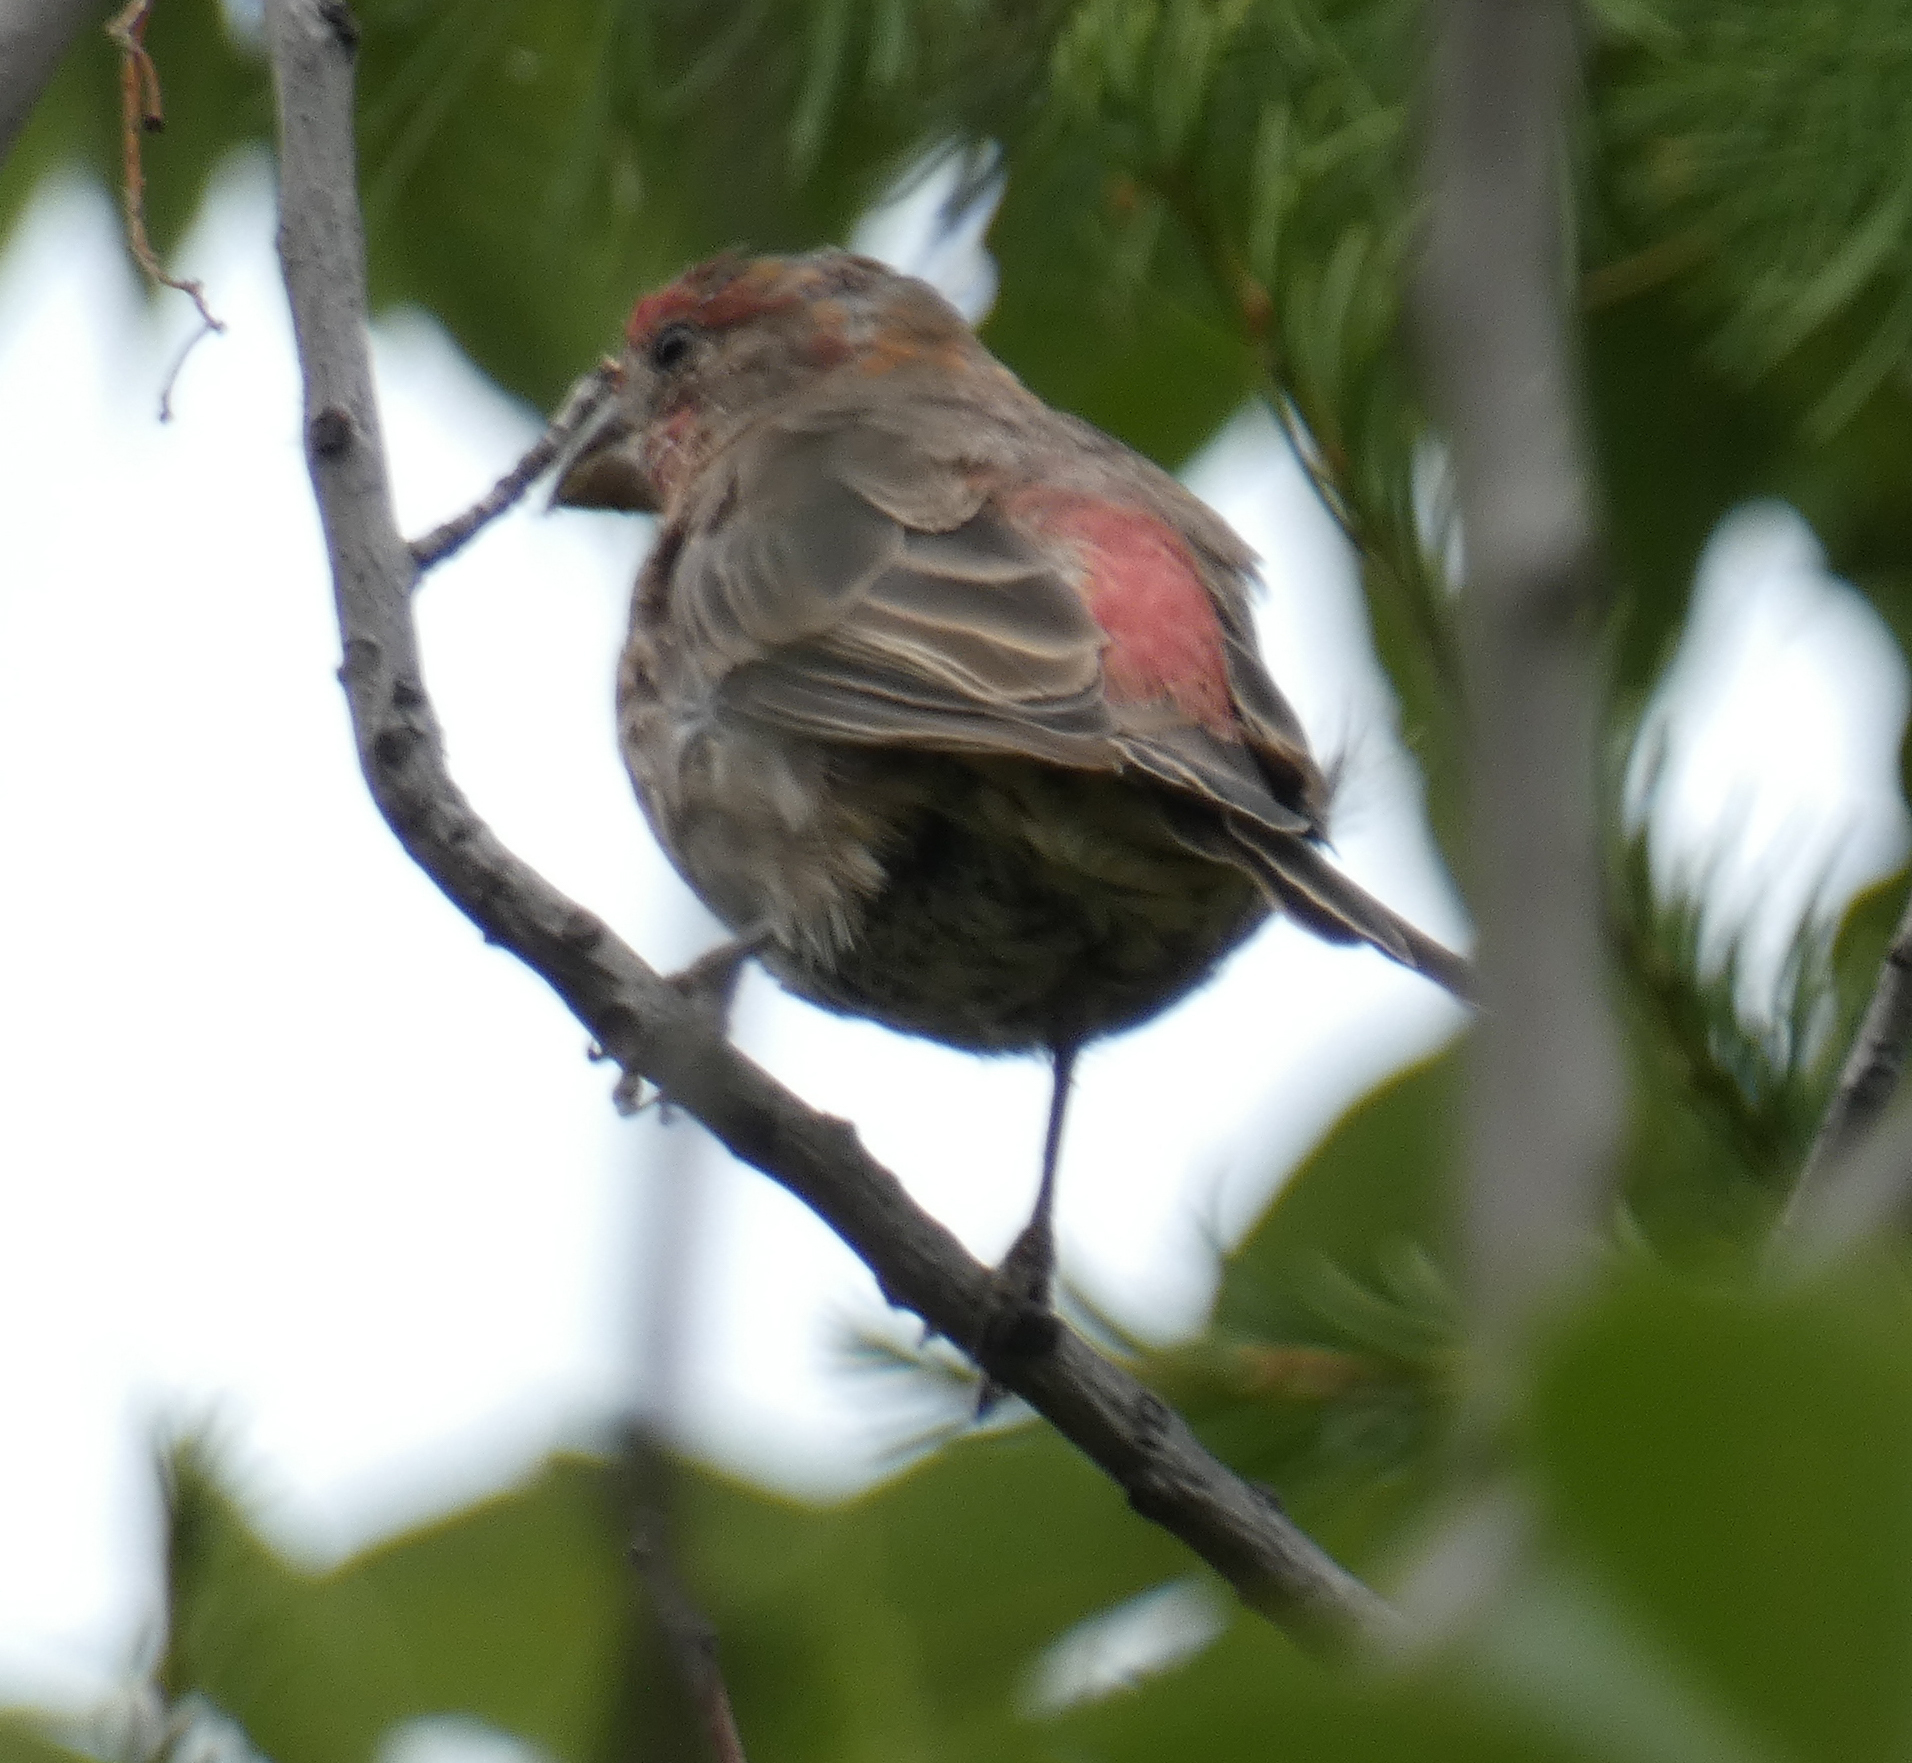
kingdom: Animalia
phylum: Chordata
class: Aves
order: Passeriformes
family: Fringillidae
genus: Haemorhous
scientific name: Haemorhous mexicanus
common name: House finch
